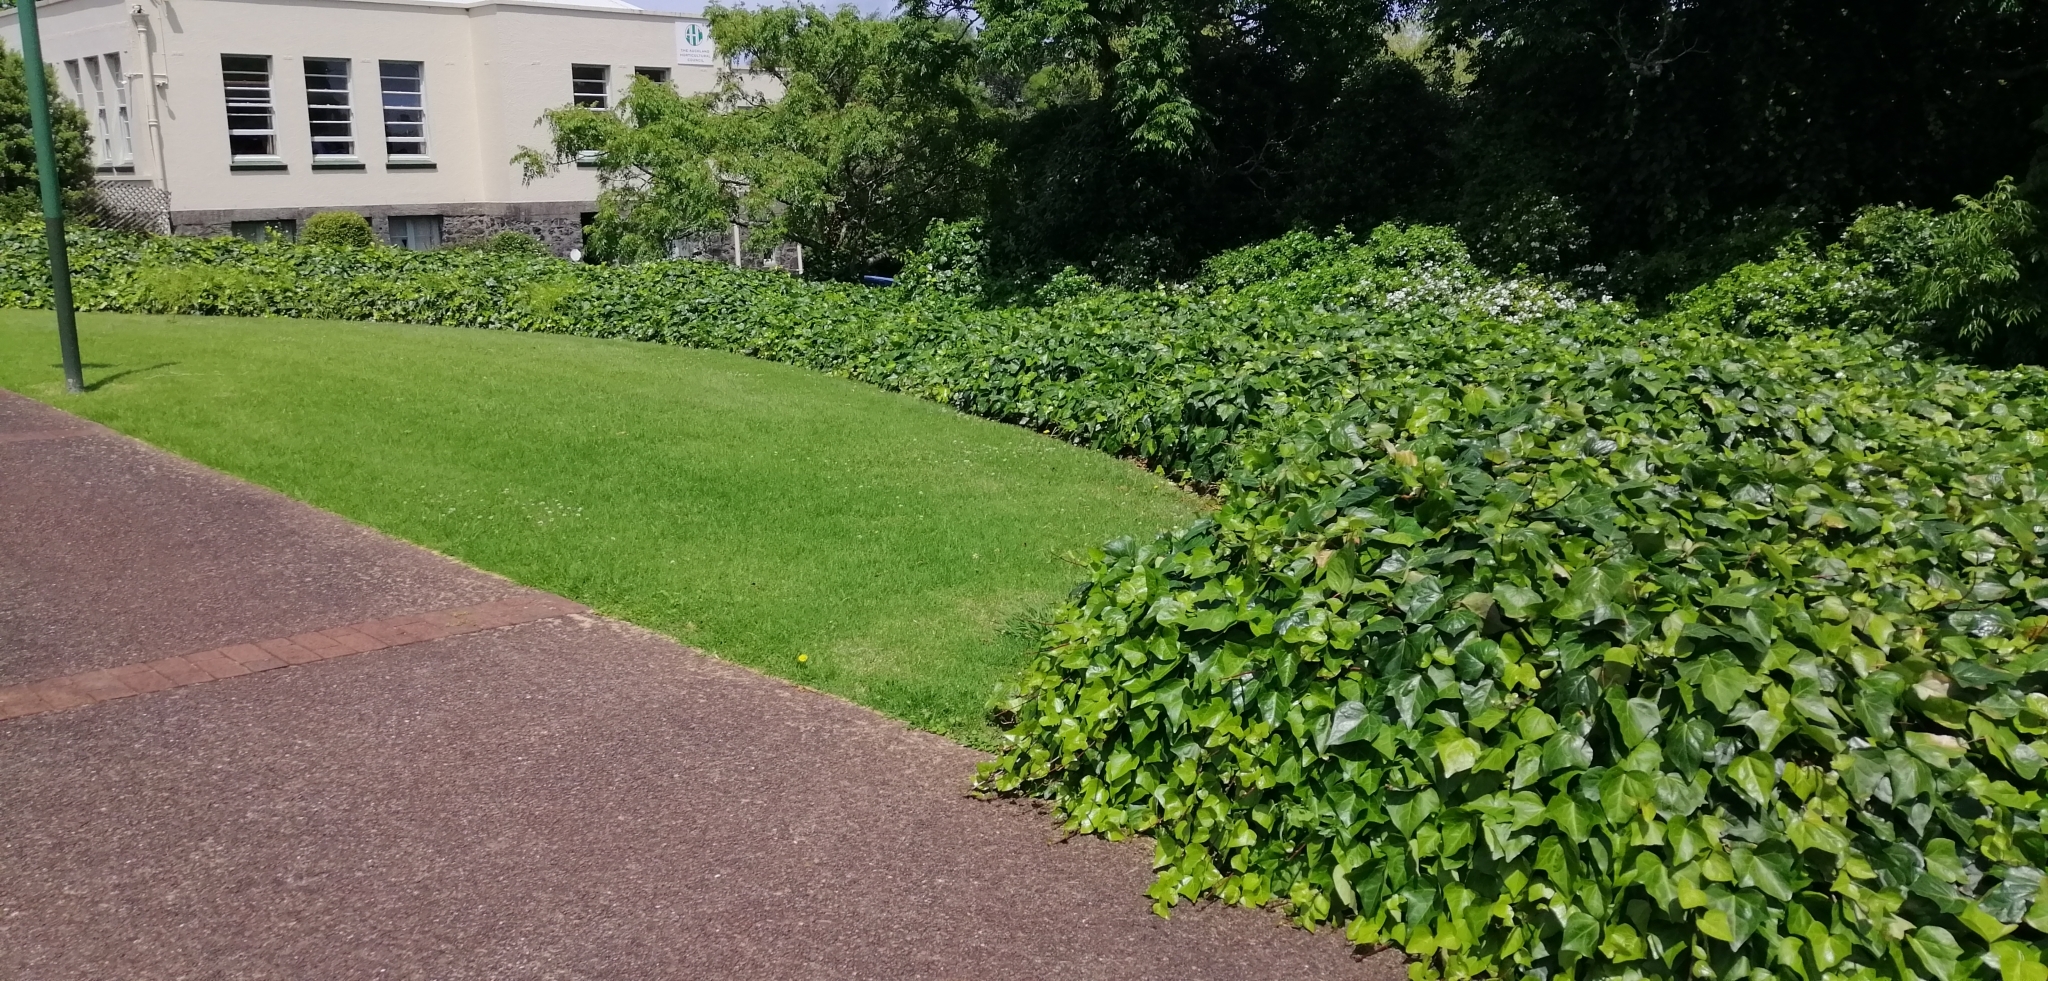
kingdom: Plantae
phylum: Tracheophyta
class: Magnoliopsida
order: Apiales
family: Araliaceae
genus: Hedera
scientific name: Hedera canariensis
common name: Madeira ivy
